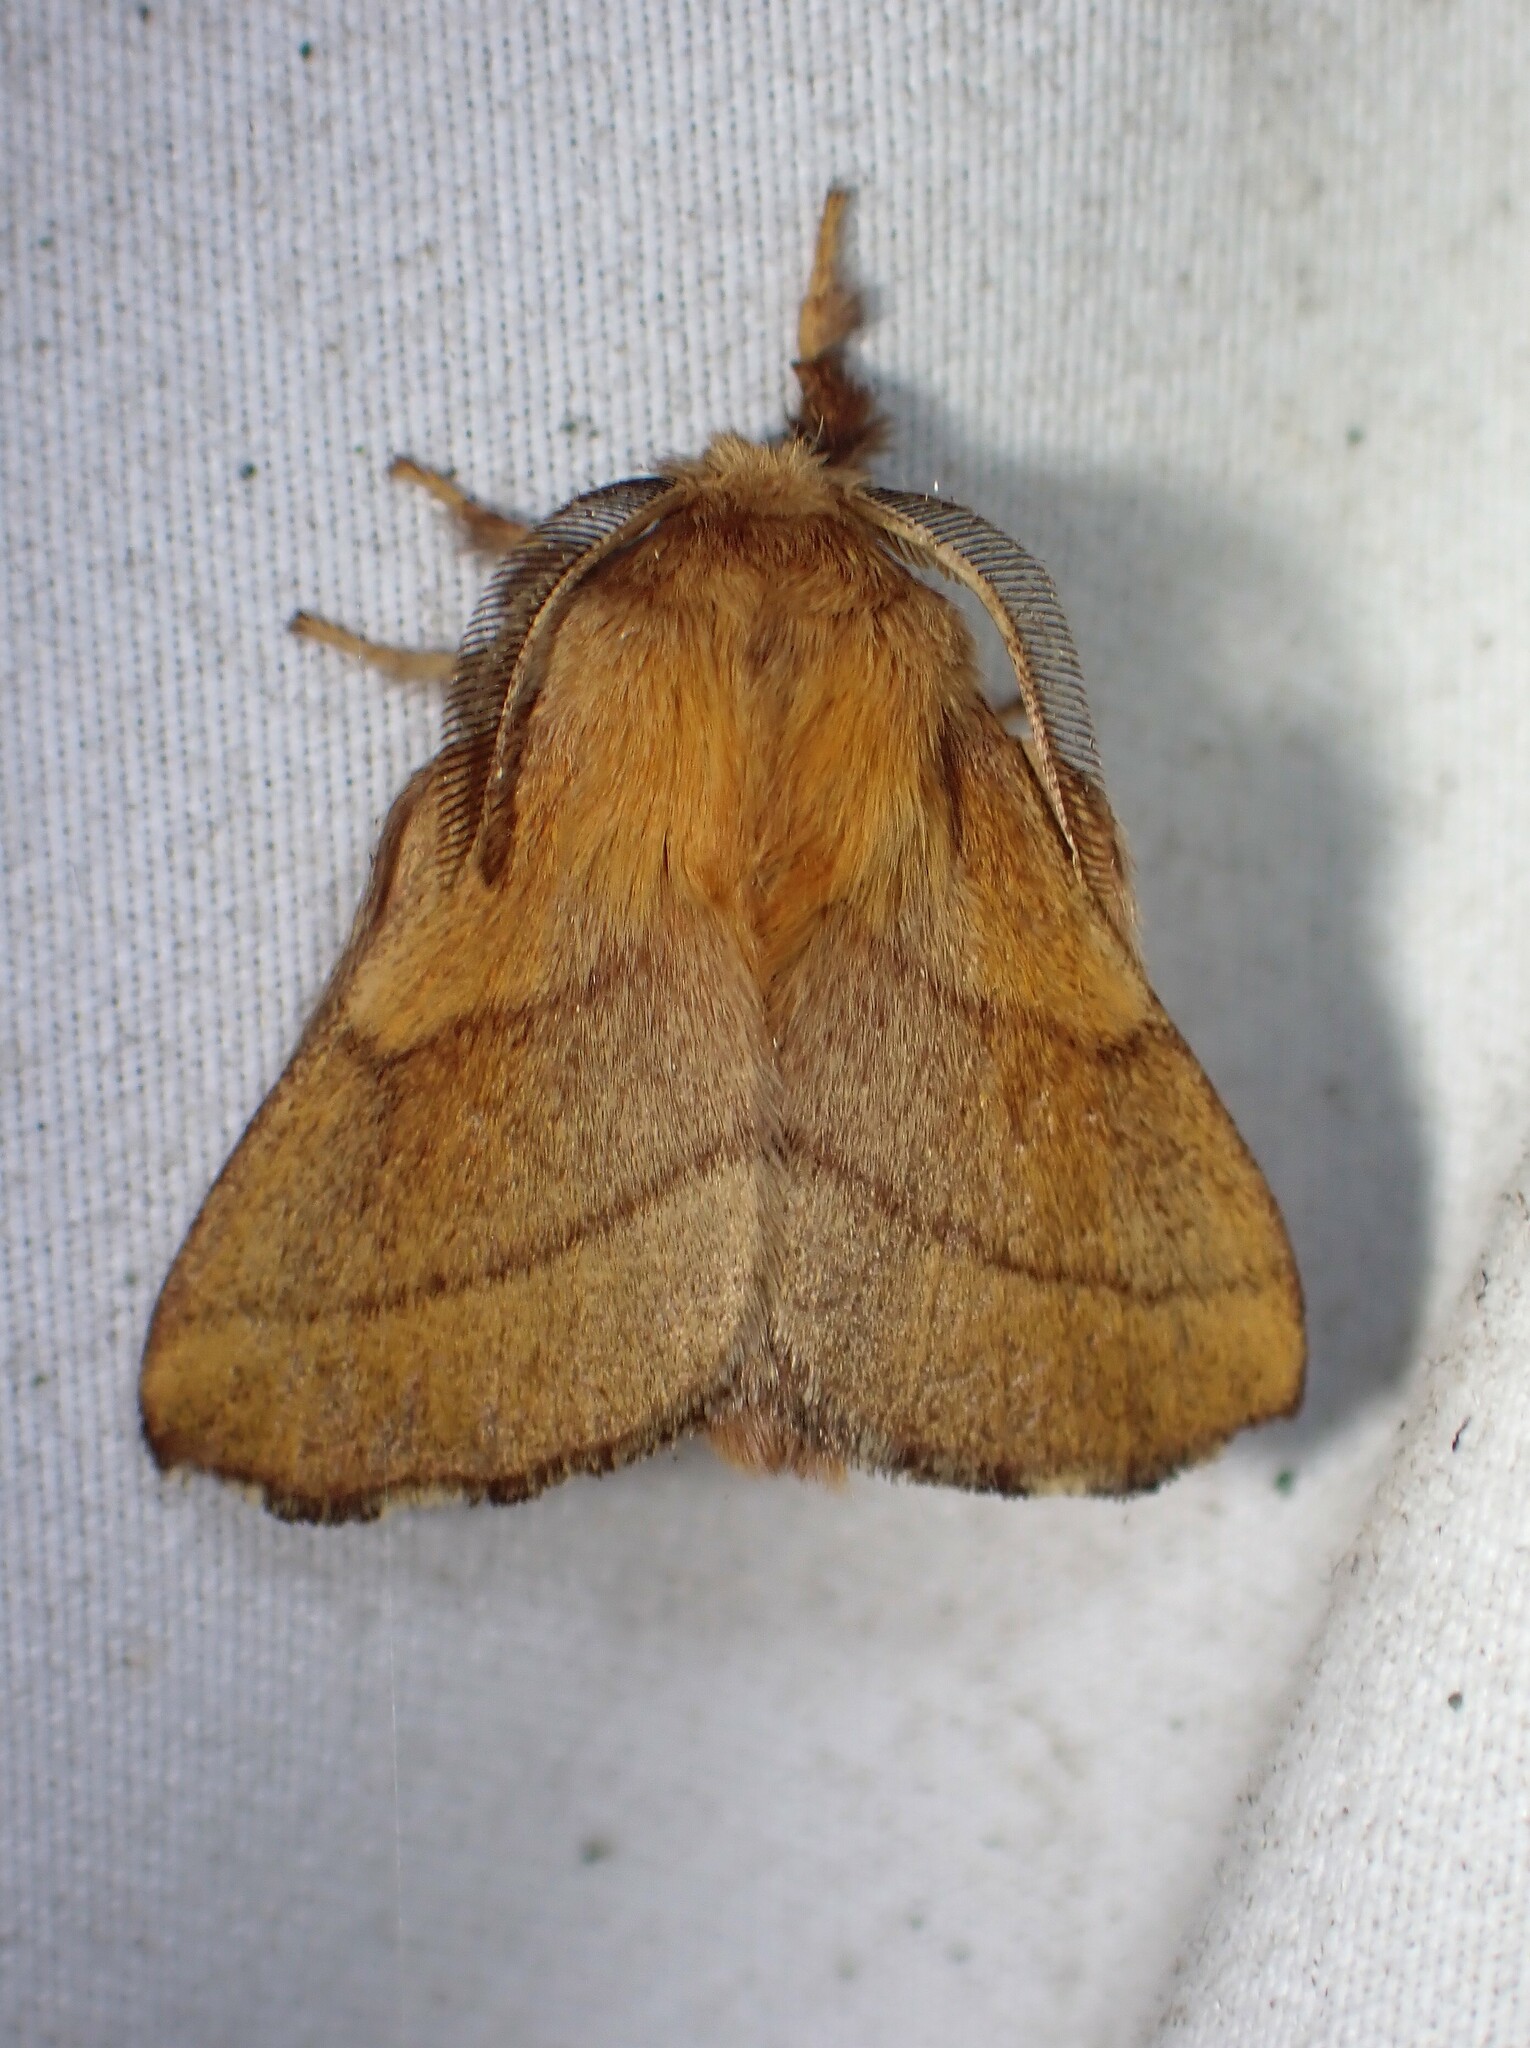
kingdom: Animalia
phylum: Arthropoda
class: Insecta
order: Lepidoptera
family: Lasiocampidae
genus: Malacosoma
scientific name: Malacosoma disstria
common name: Forest tent caterpillar
